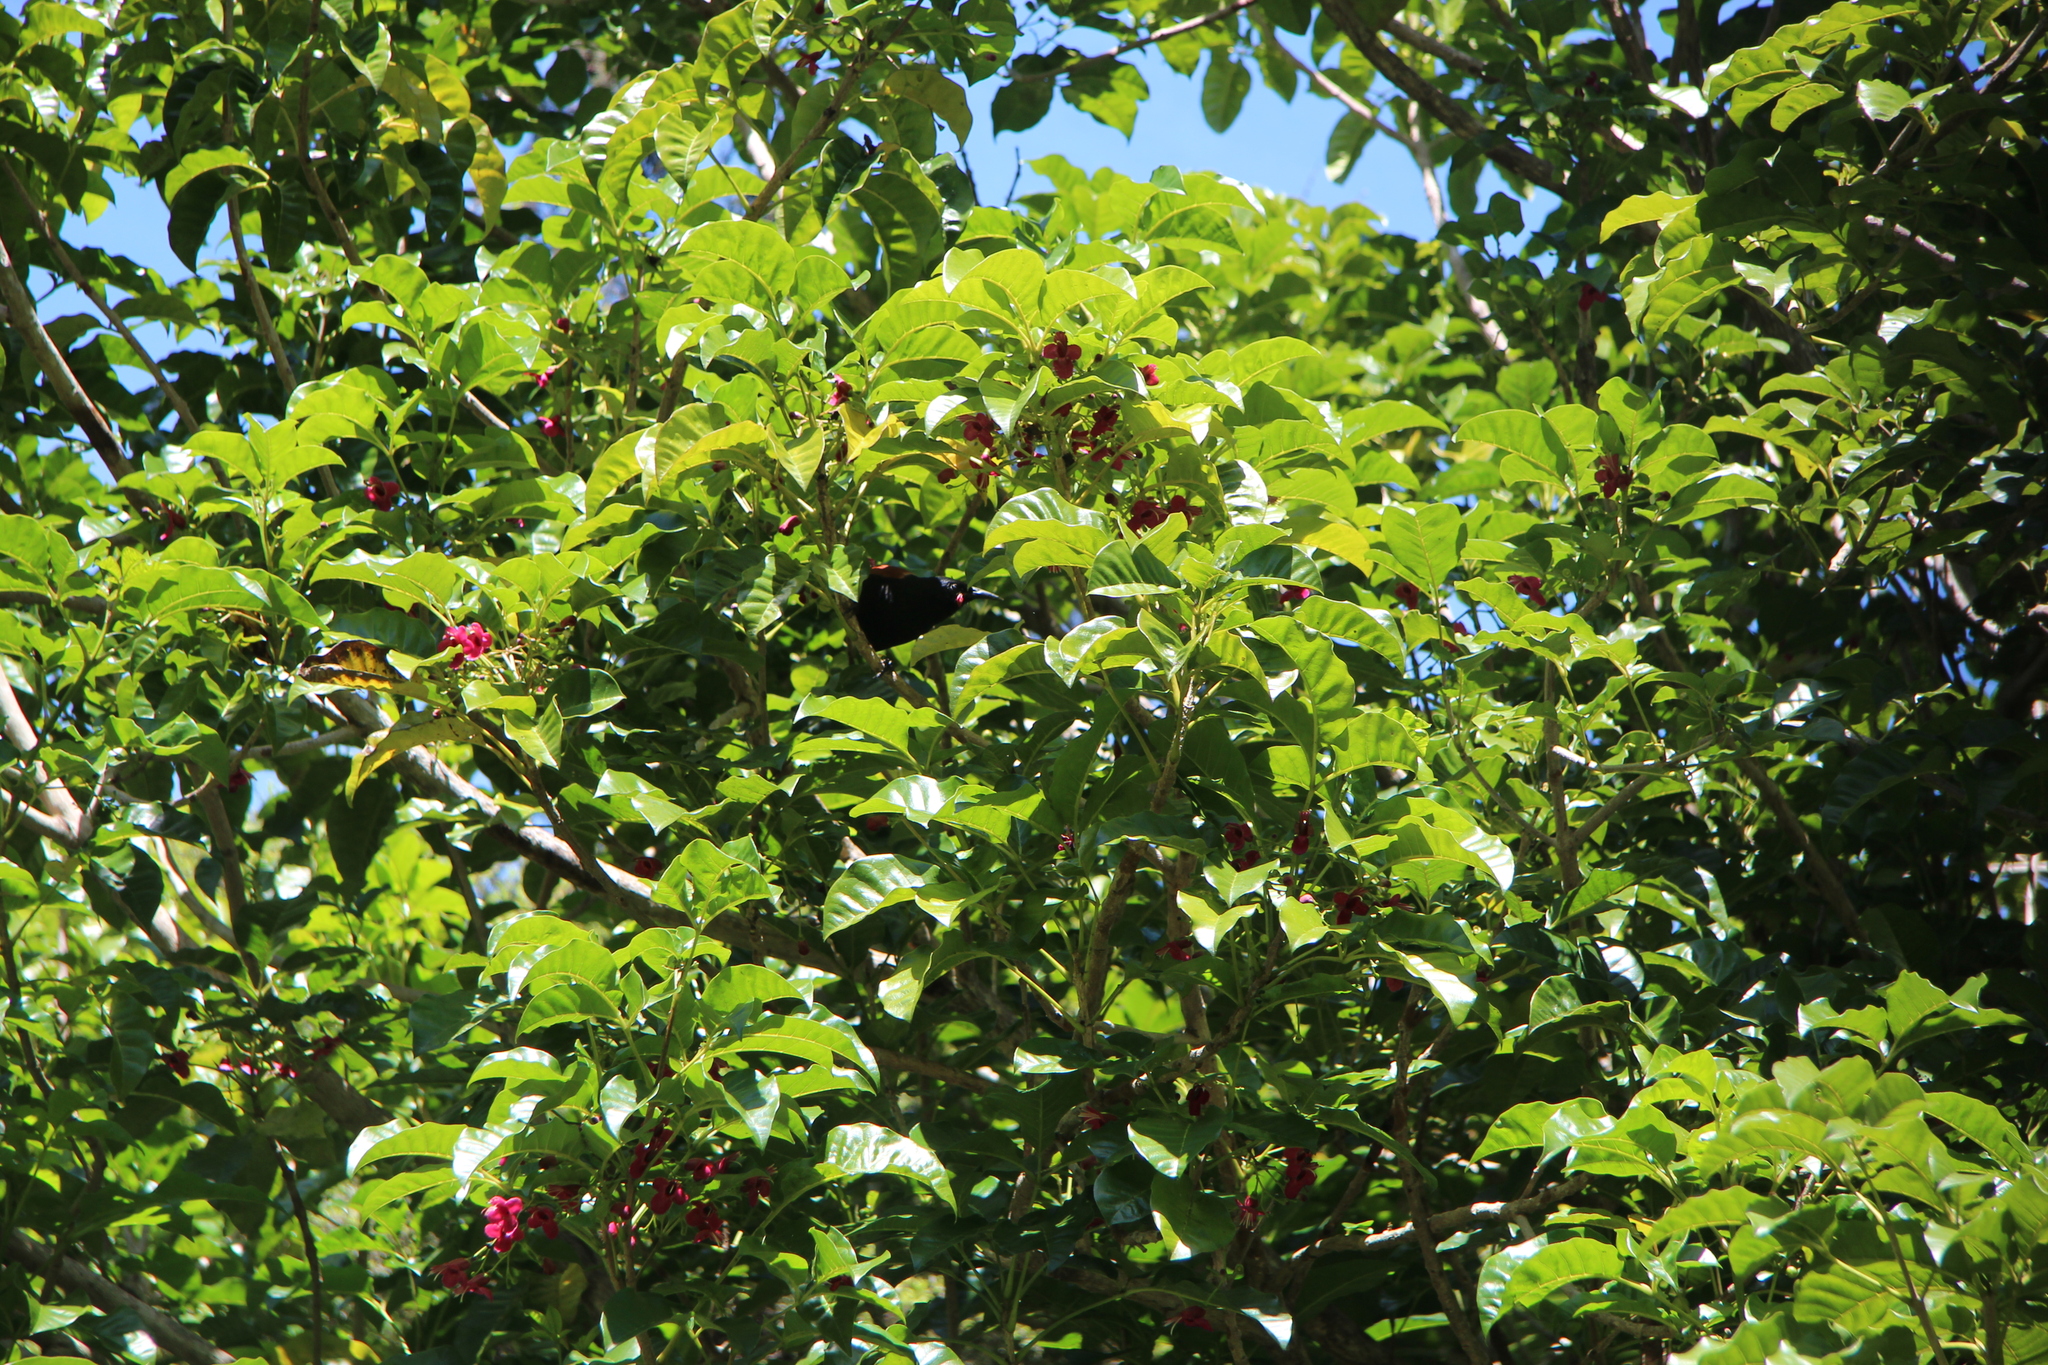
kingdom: Animalia
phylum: Chordata
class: Aves
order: Passeriformes
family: Callaeatidae
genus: Philesturnus
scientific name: Philesturnus carunculatus
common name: South island saddleback
